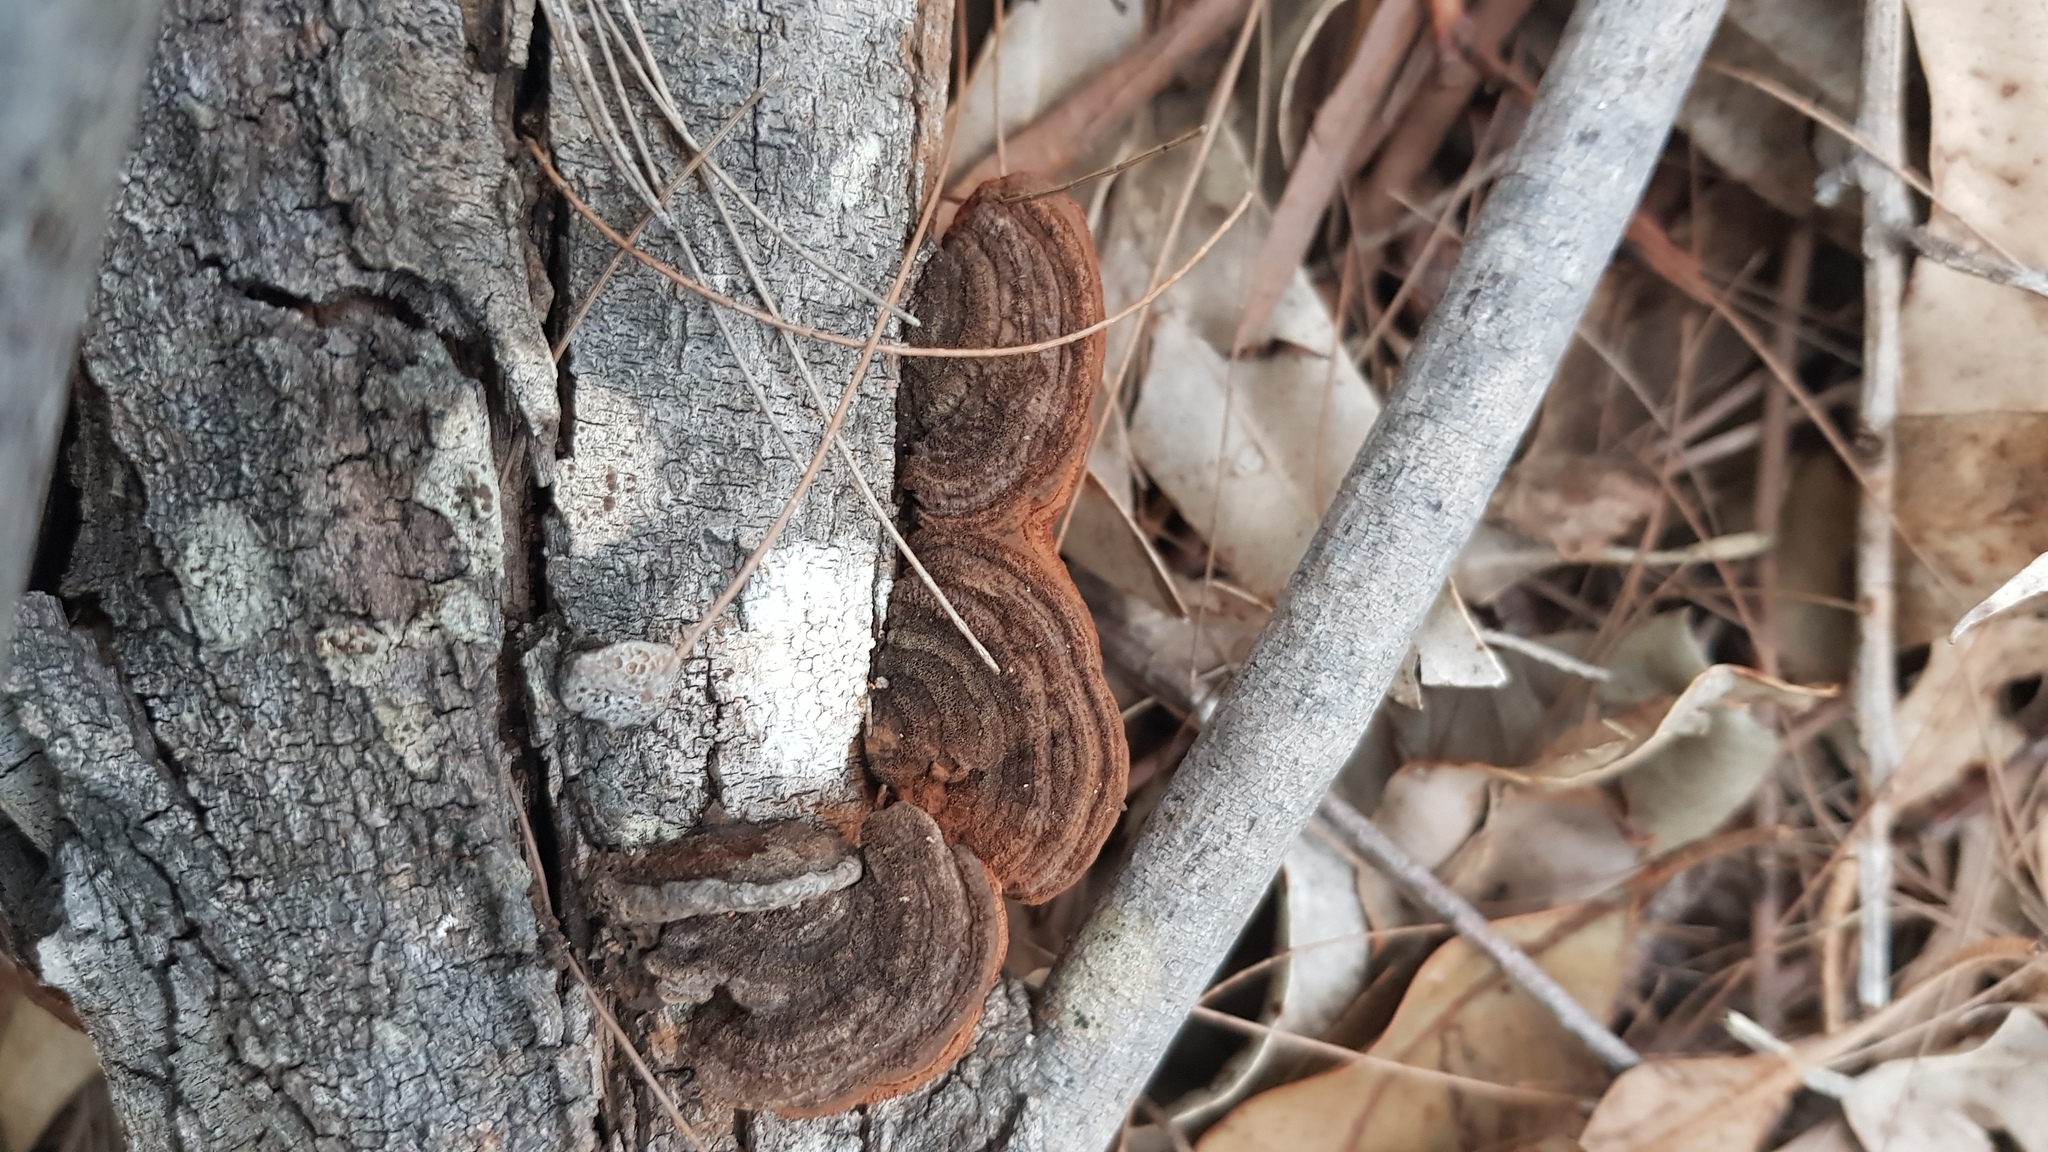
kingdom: Fungi
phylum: Basidiomycota
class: Agaricomycetes
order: Polyporales
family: Polyporaceae
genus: Phaeotrametes
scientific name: Phaeotrametes decipiens
